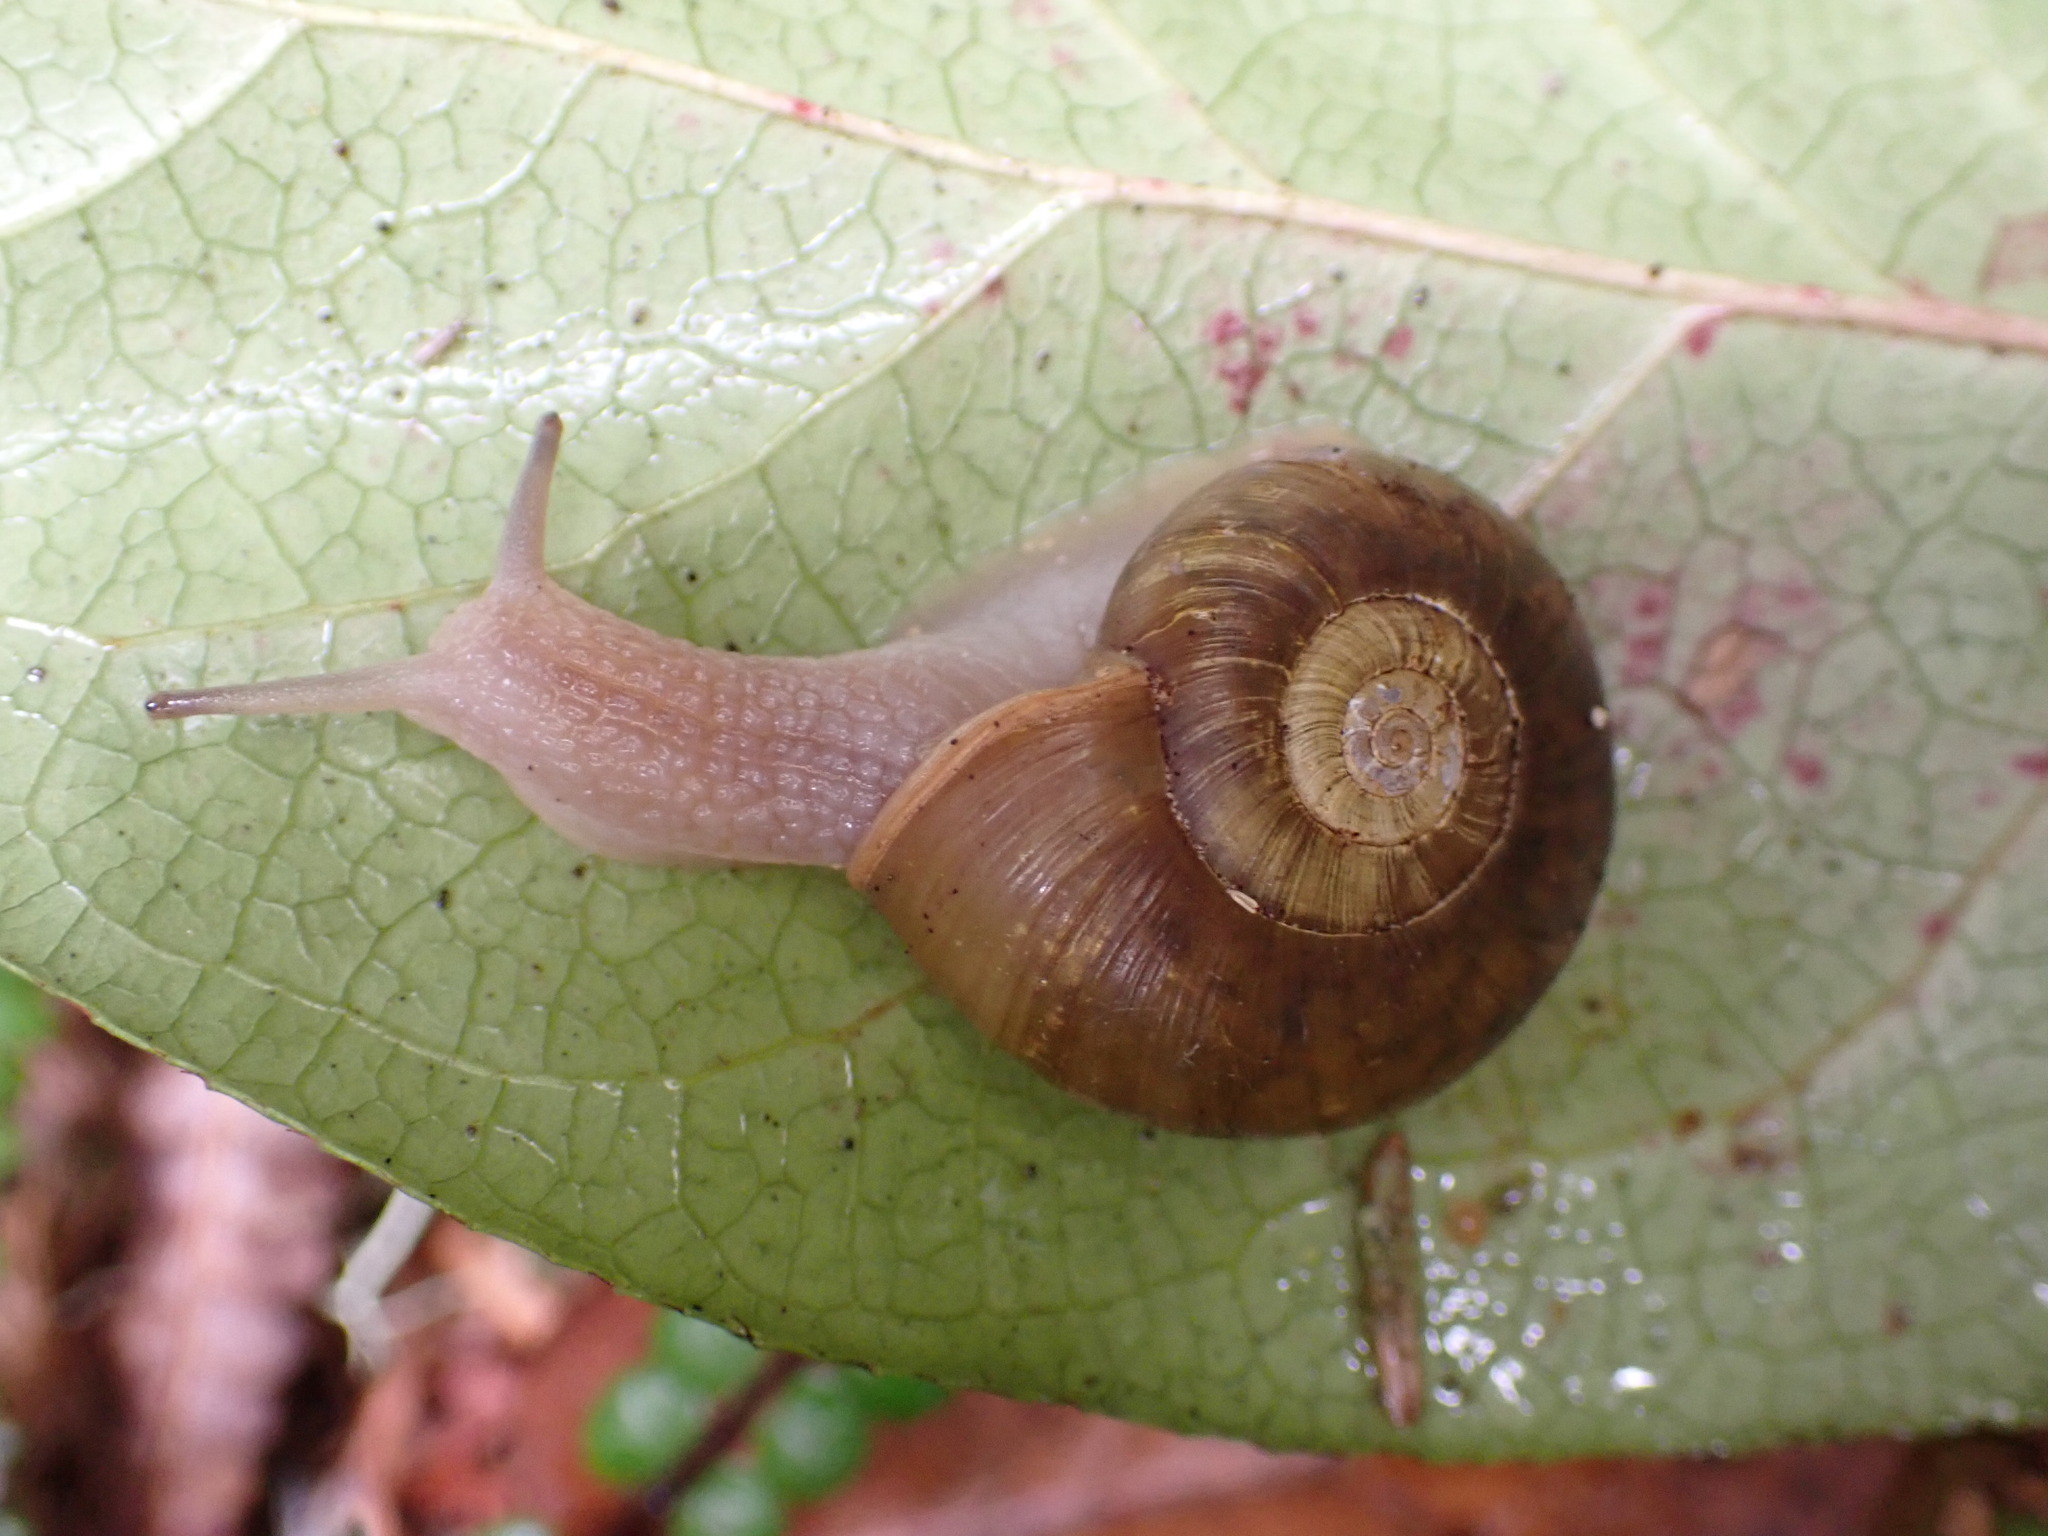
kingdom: Animalia
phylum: Mollusca
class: Gastropoda
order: Stylommatophora
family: Haplotrematidae
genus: Haplotrema
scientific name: Haplotrema vancouverense
